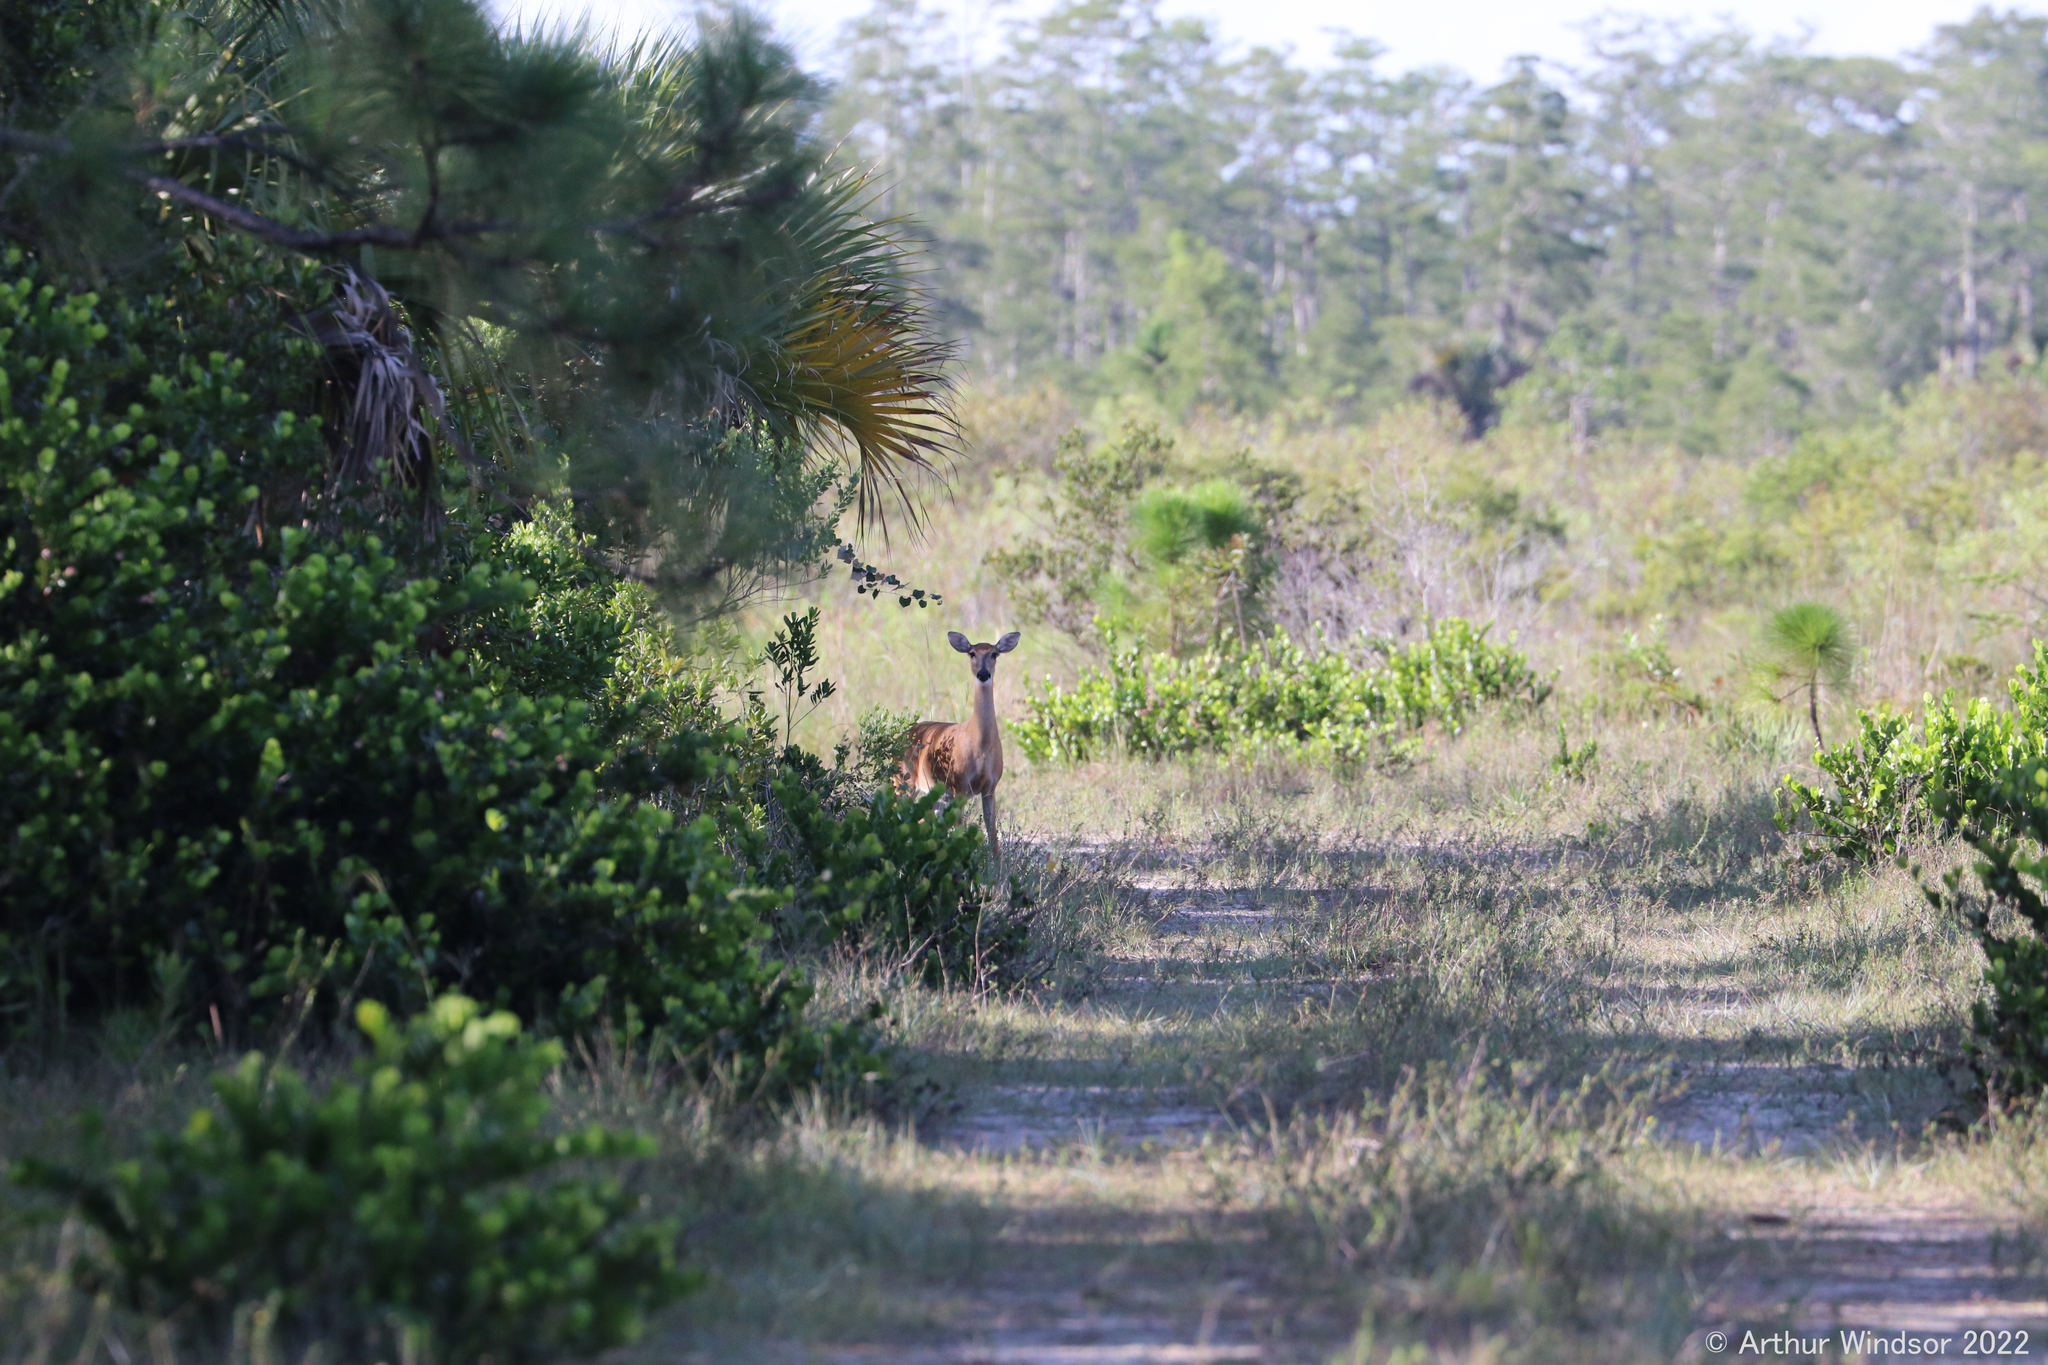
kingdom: Animalia
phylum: Chordata
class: Mammalia
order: Artiodactyla
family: Cervidae
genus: Odocoileus
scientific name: Odocoileus virginianus
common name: White-tailed deer
